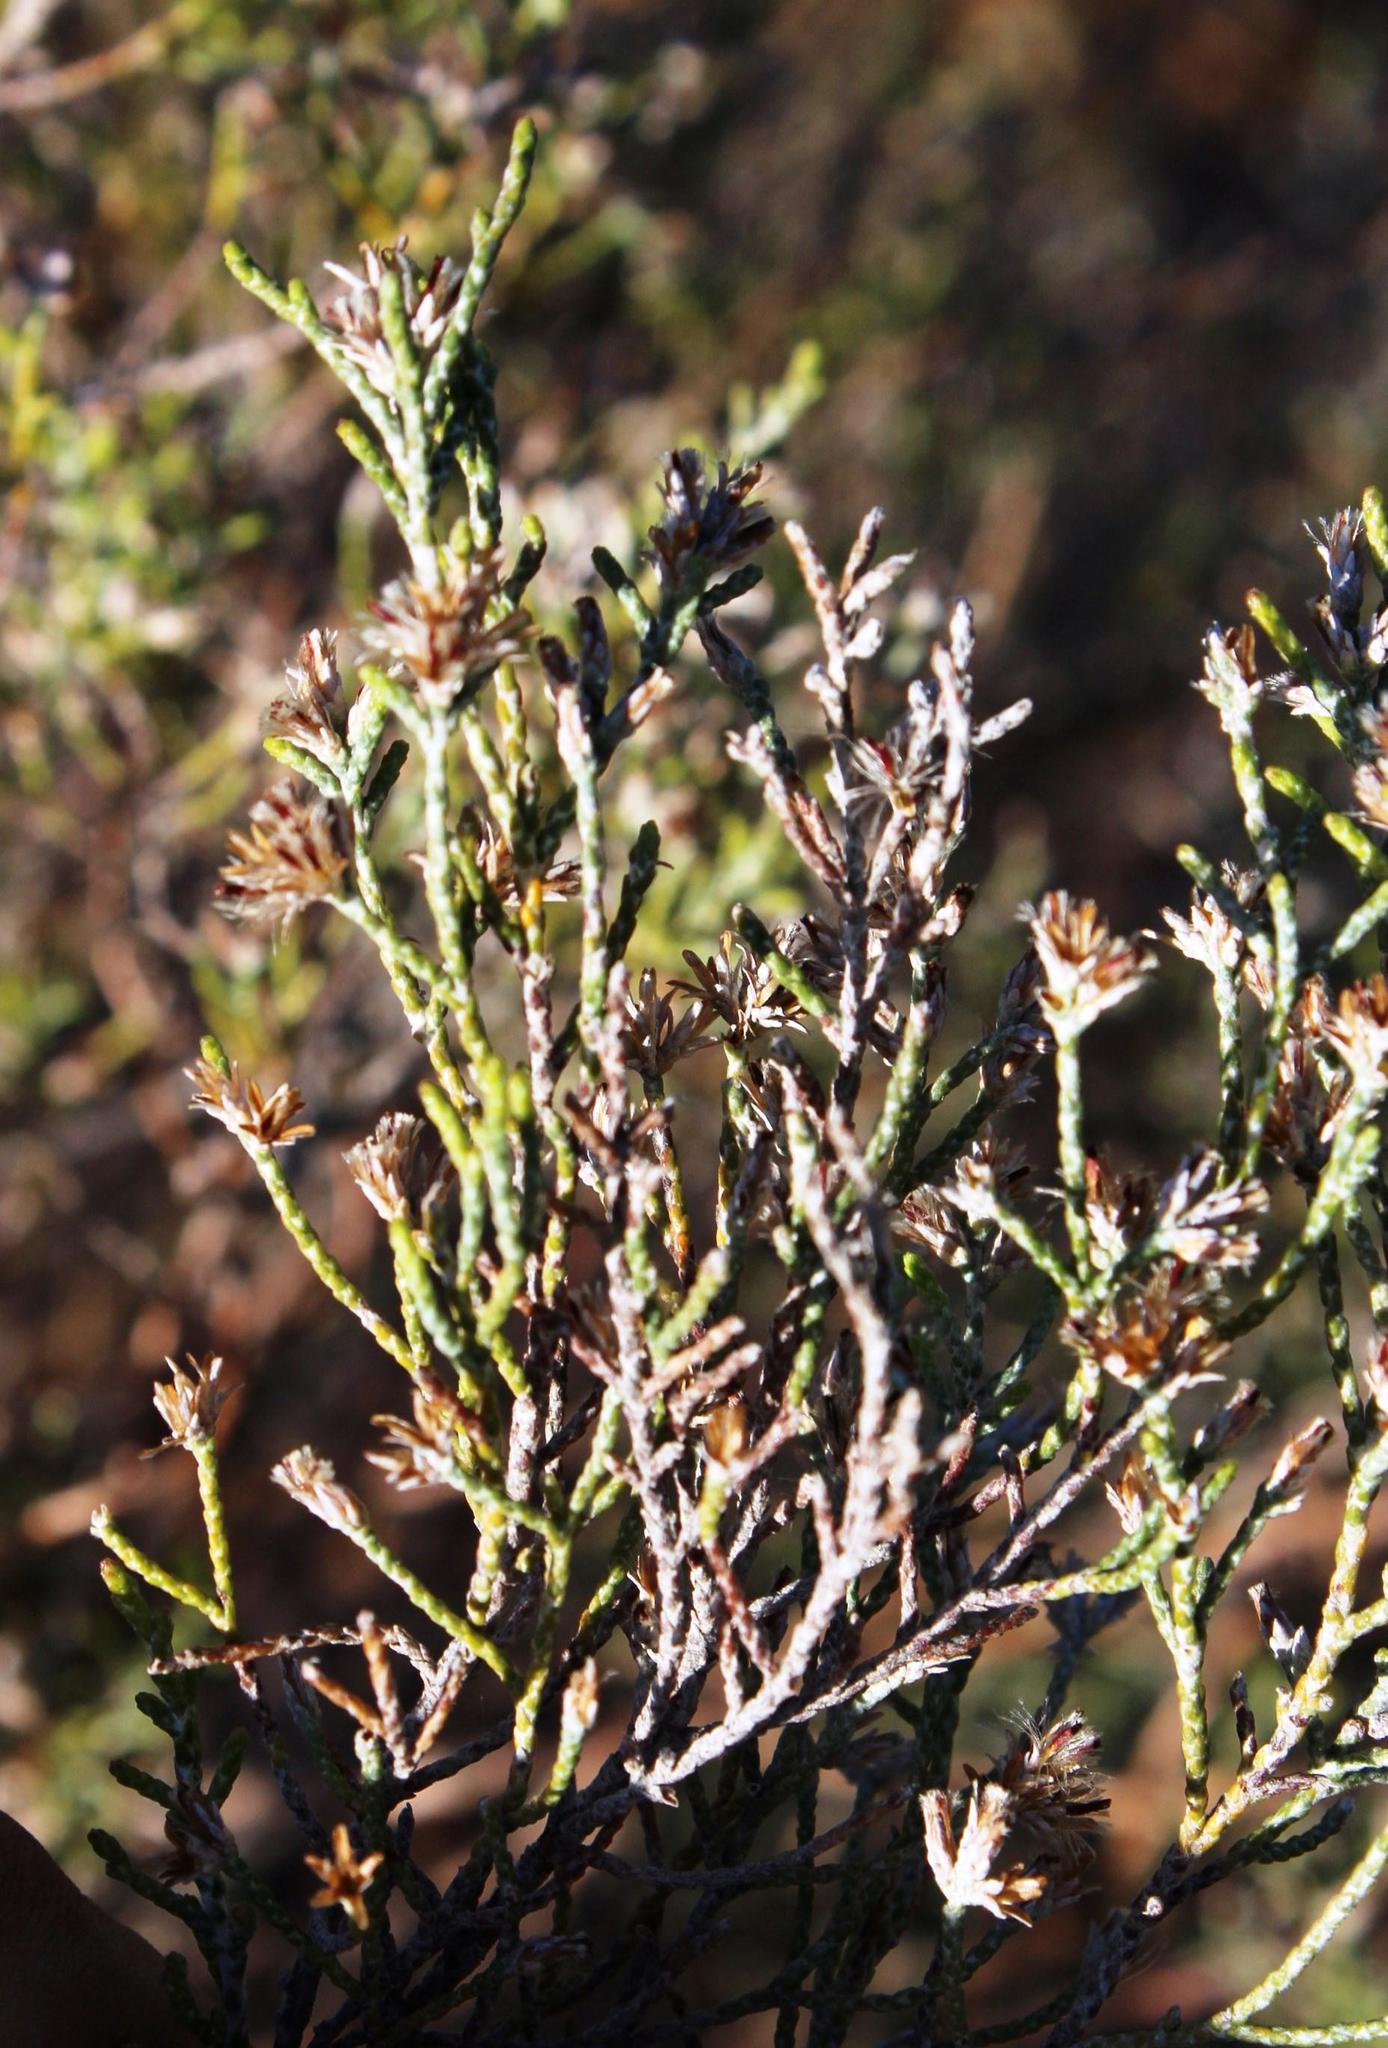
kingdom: Plantae
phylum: Tracheophyta
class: Magnoliopsida
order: Asterales
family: Asteraceae
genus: Dicerothamnus
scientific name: Dicerothamnus rhinocerotis
